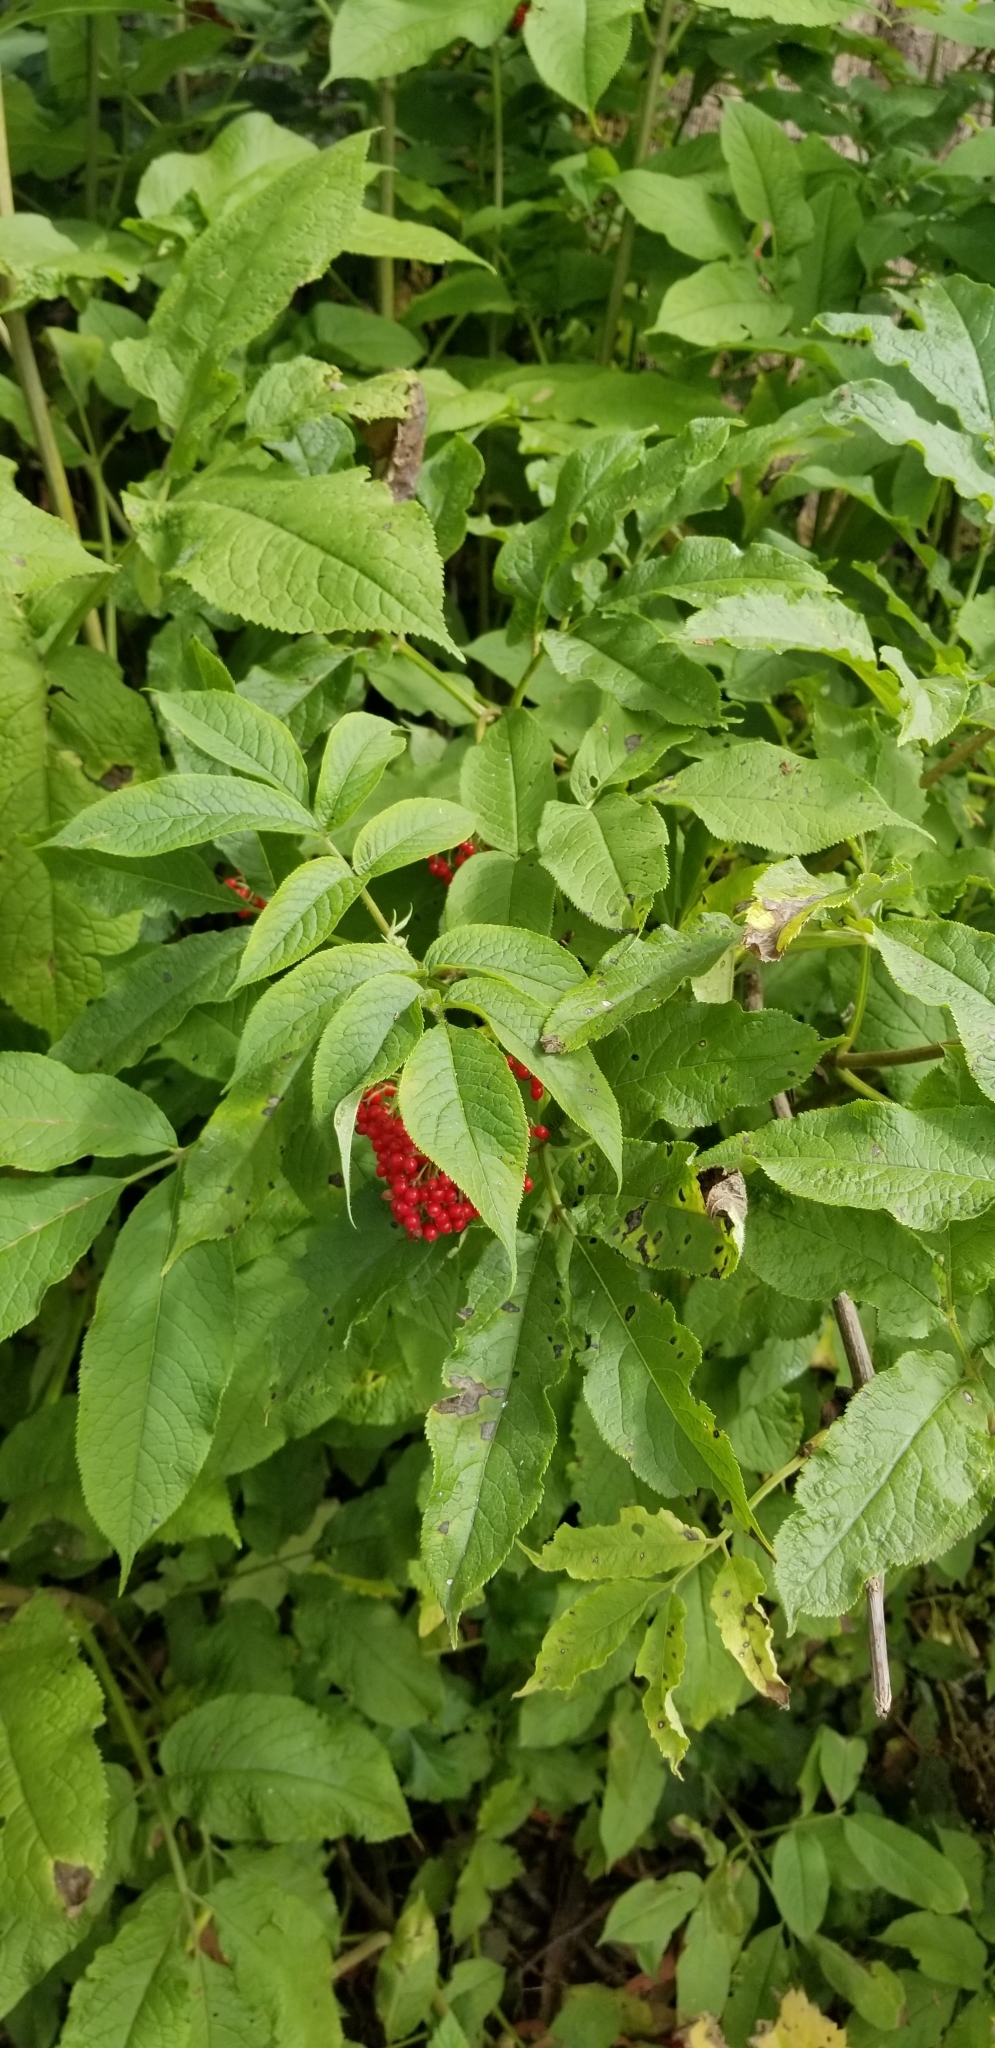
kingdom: Plantae
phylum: Tracheophyta
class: Magnoliopsida
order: Dipsacales
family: Viburnaceae
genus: Sambucus
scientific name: Sambucus racemosa
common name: Red-berried elder
